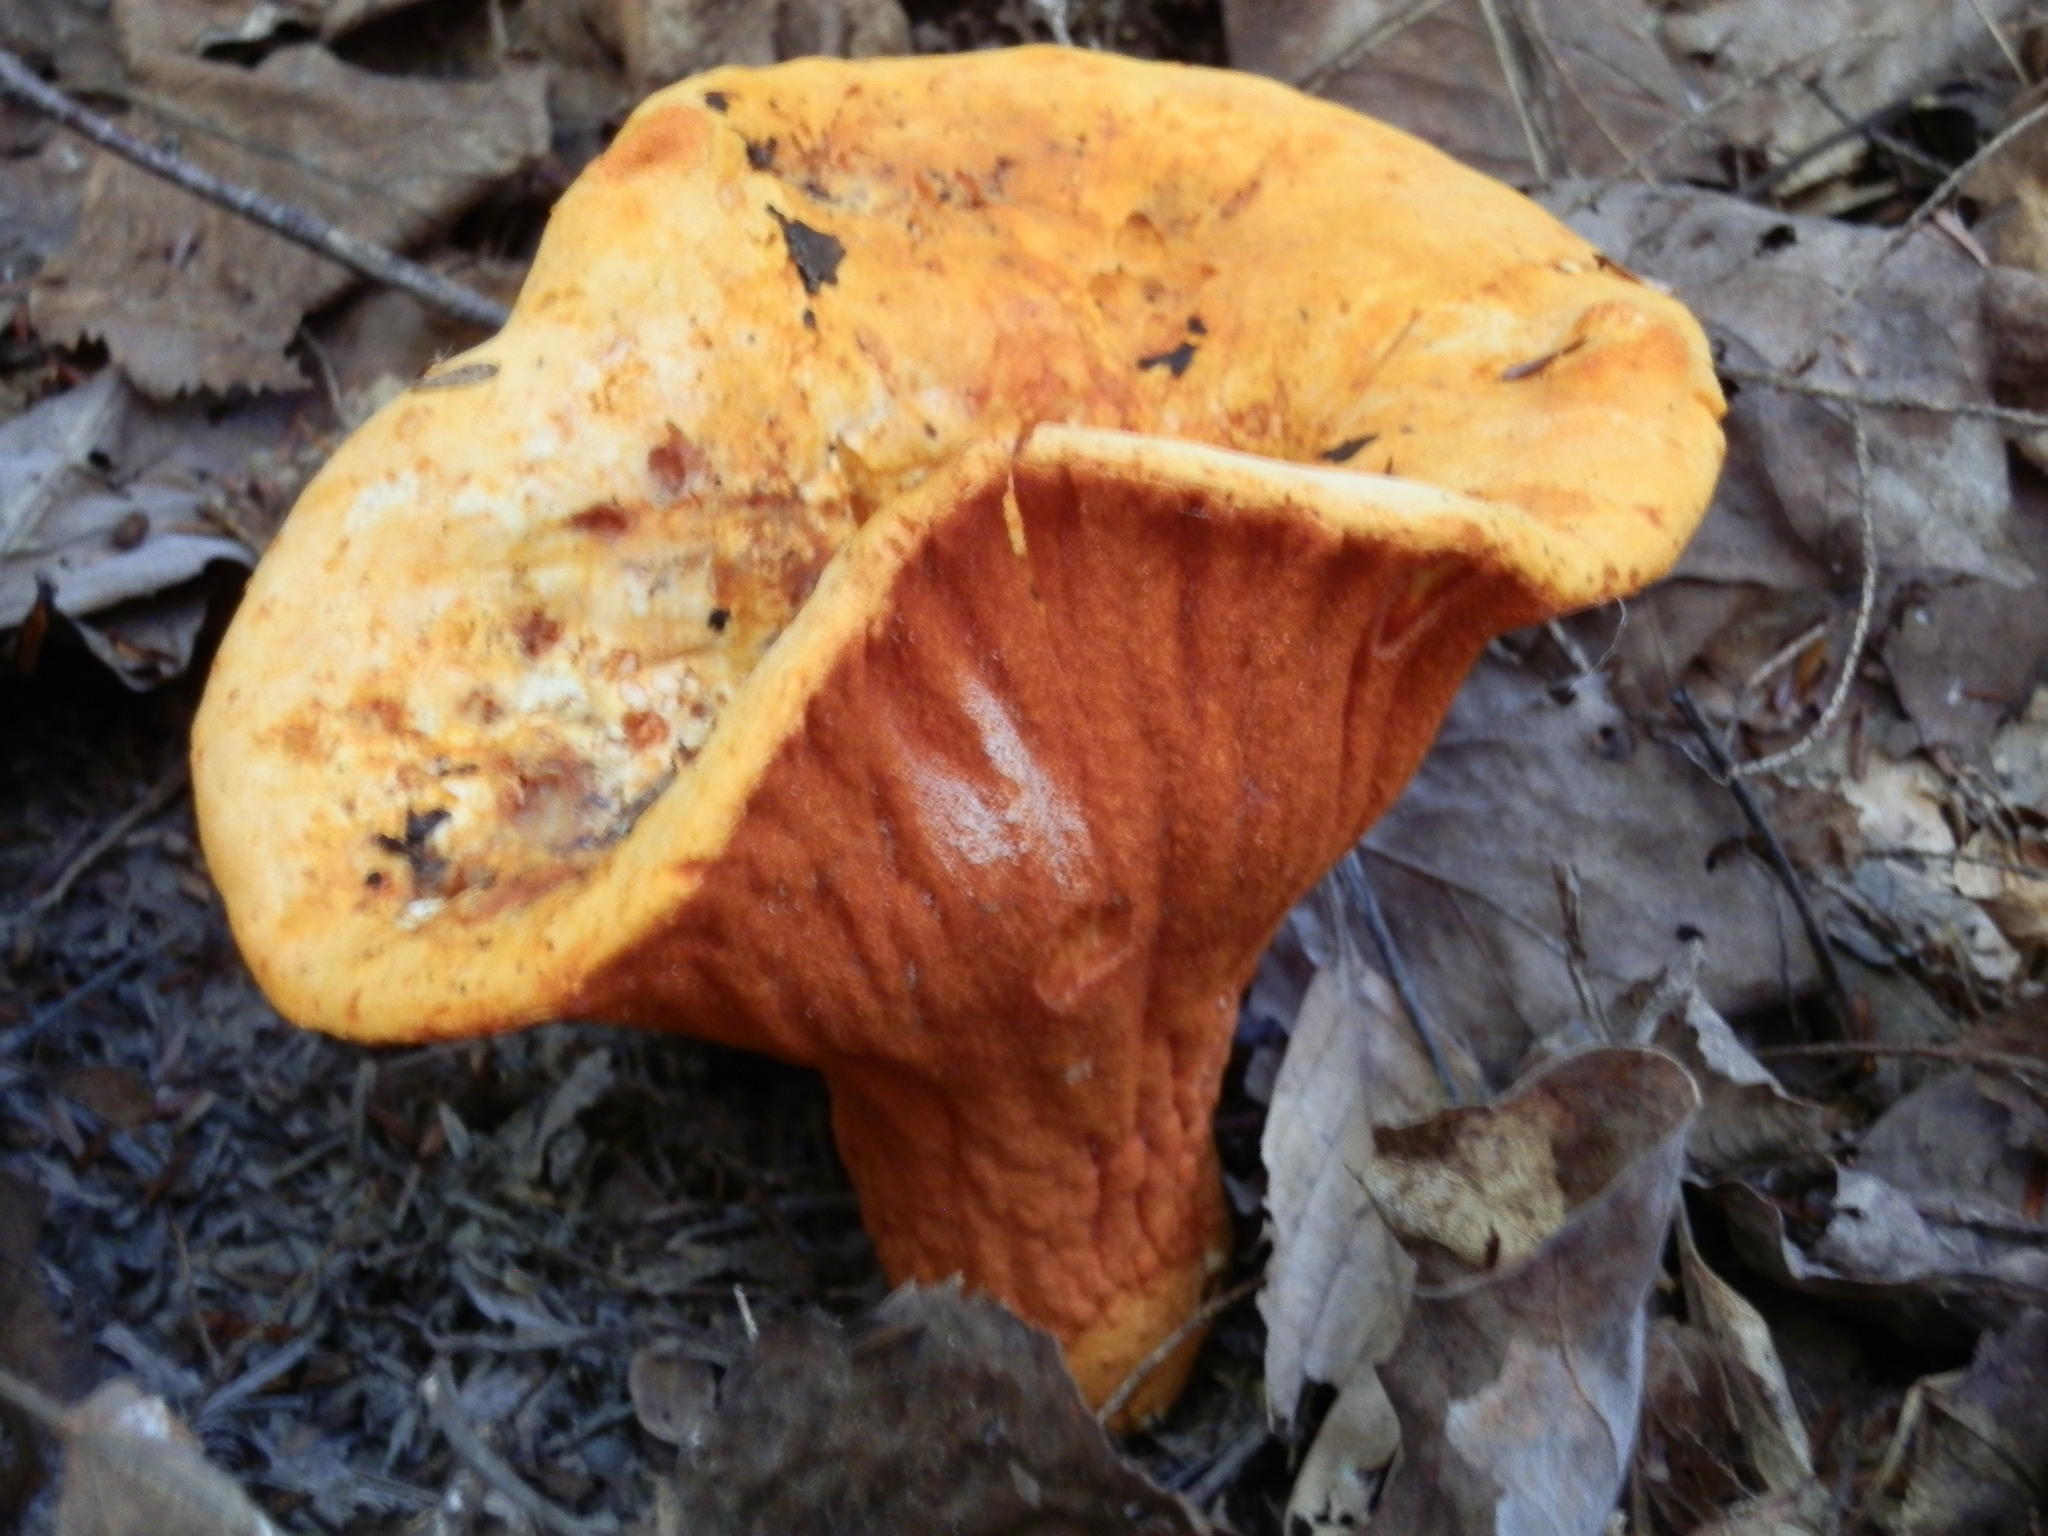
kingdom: Fungi
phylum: Ascomycota
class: Sordariomycetes
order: Hypocreales
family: Hypocreaceae
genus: Hypomyces
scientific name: Hypomyces lactifluorum
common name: Lobster mushroom
